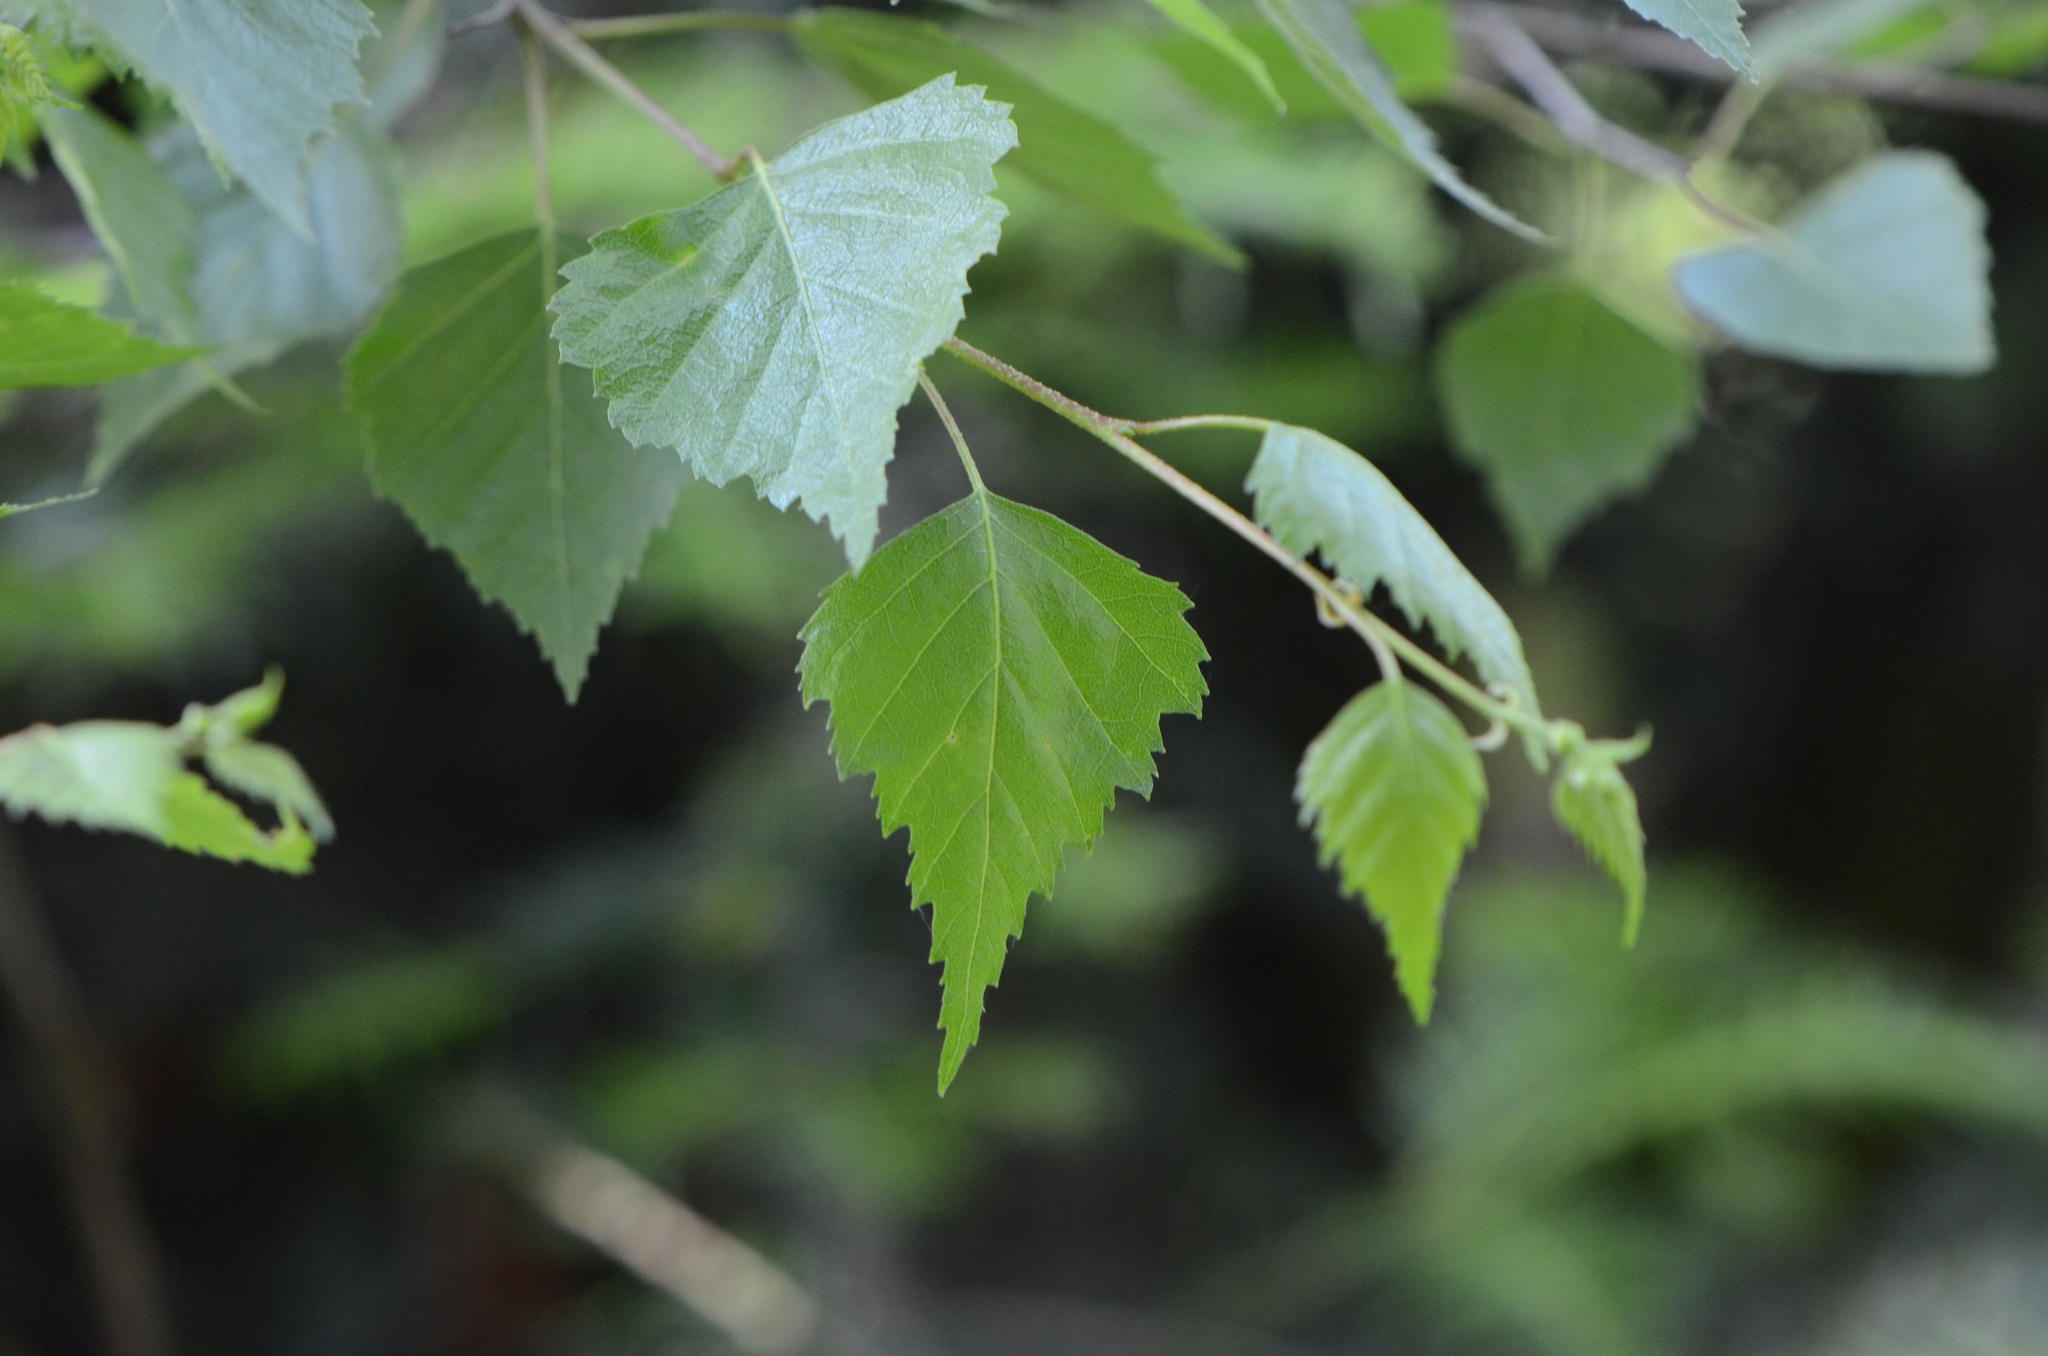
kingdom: Plantae
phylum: Tracheophyta
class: Magnoliopsida
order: Fagales
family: Betulaceae
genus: Betula
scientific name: Betula pendula
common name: Silver birch
